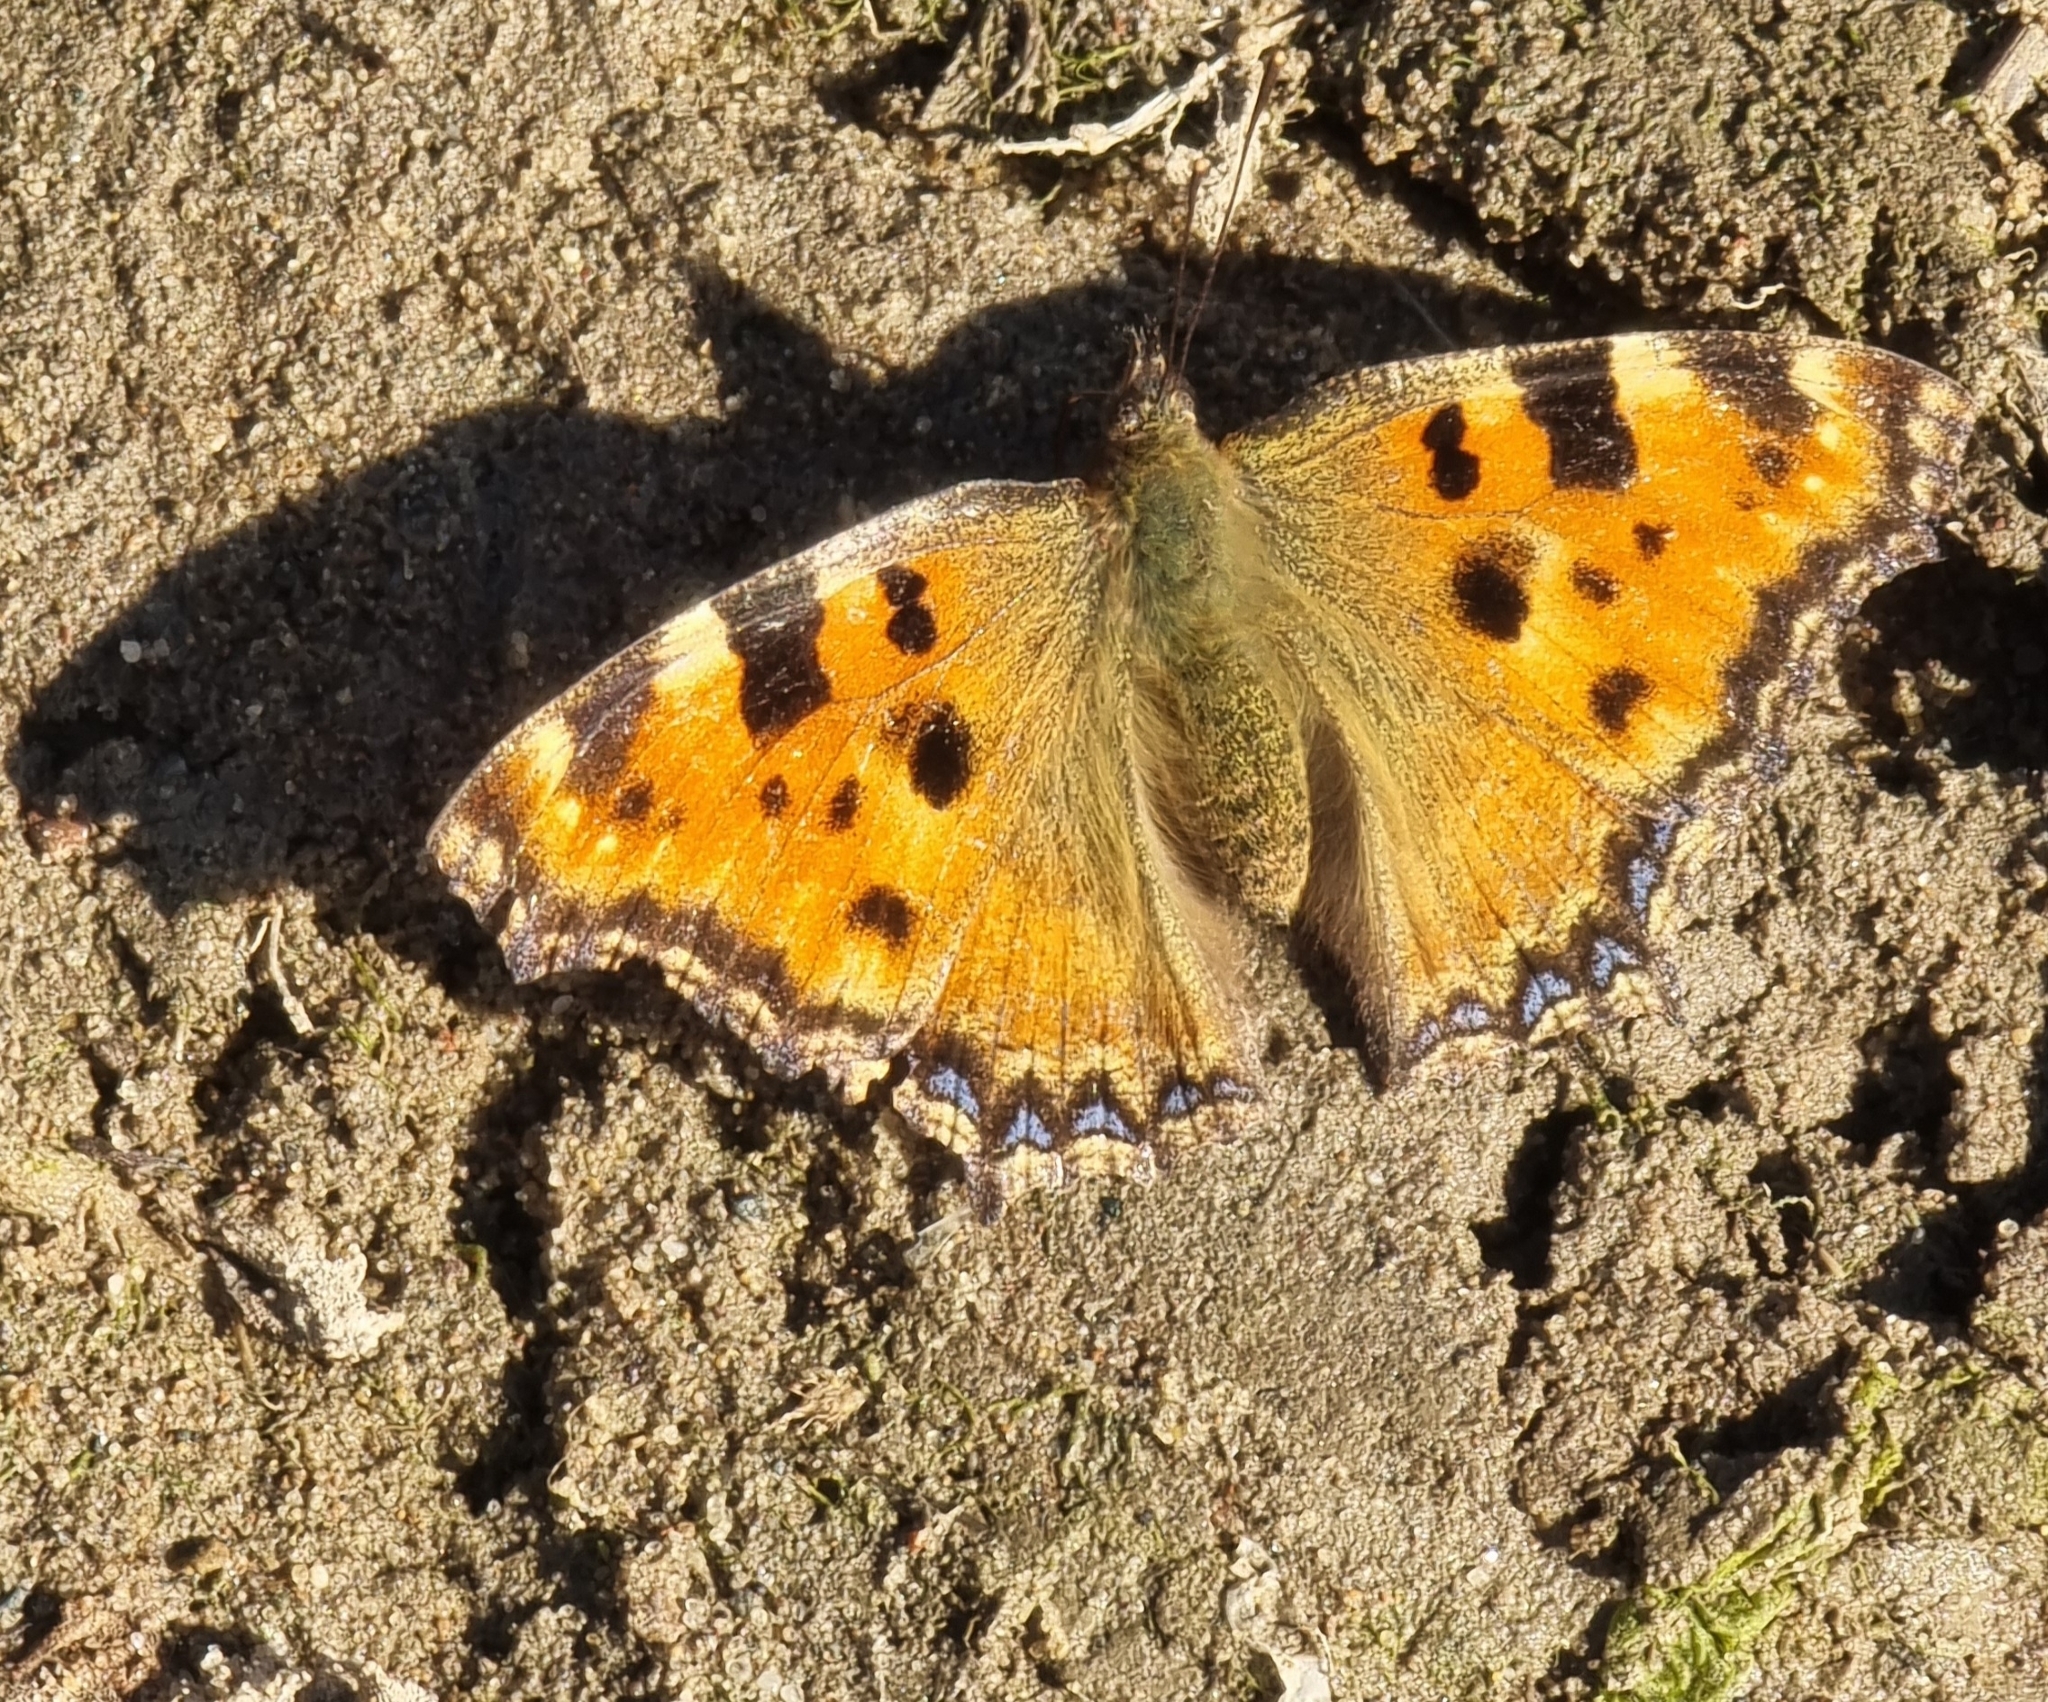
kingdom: Animalia
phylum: Arthropoda
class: Insecta
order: Lepidoptera
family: Nymphalidae
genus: Nymphalis
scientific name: Nymphalis polychloros
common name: Large tortoiseshell
